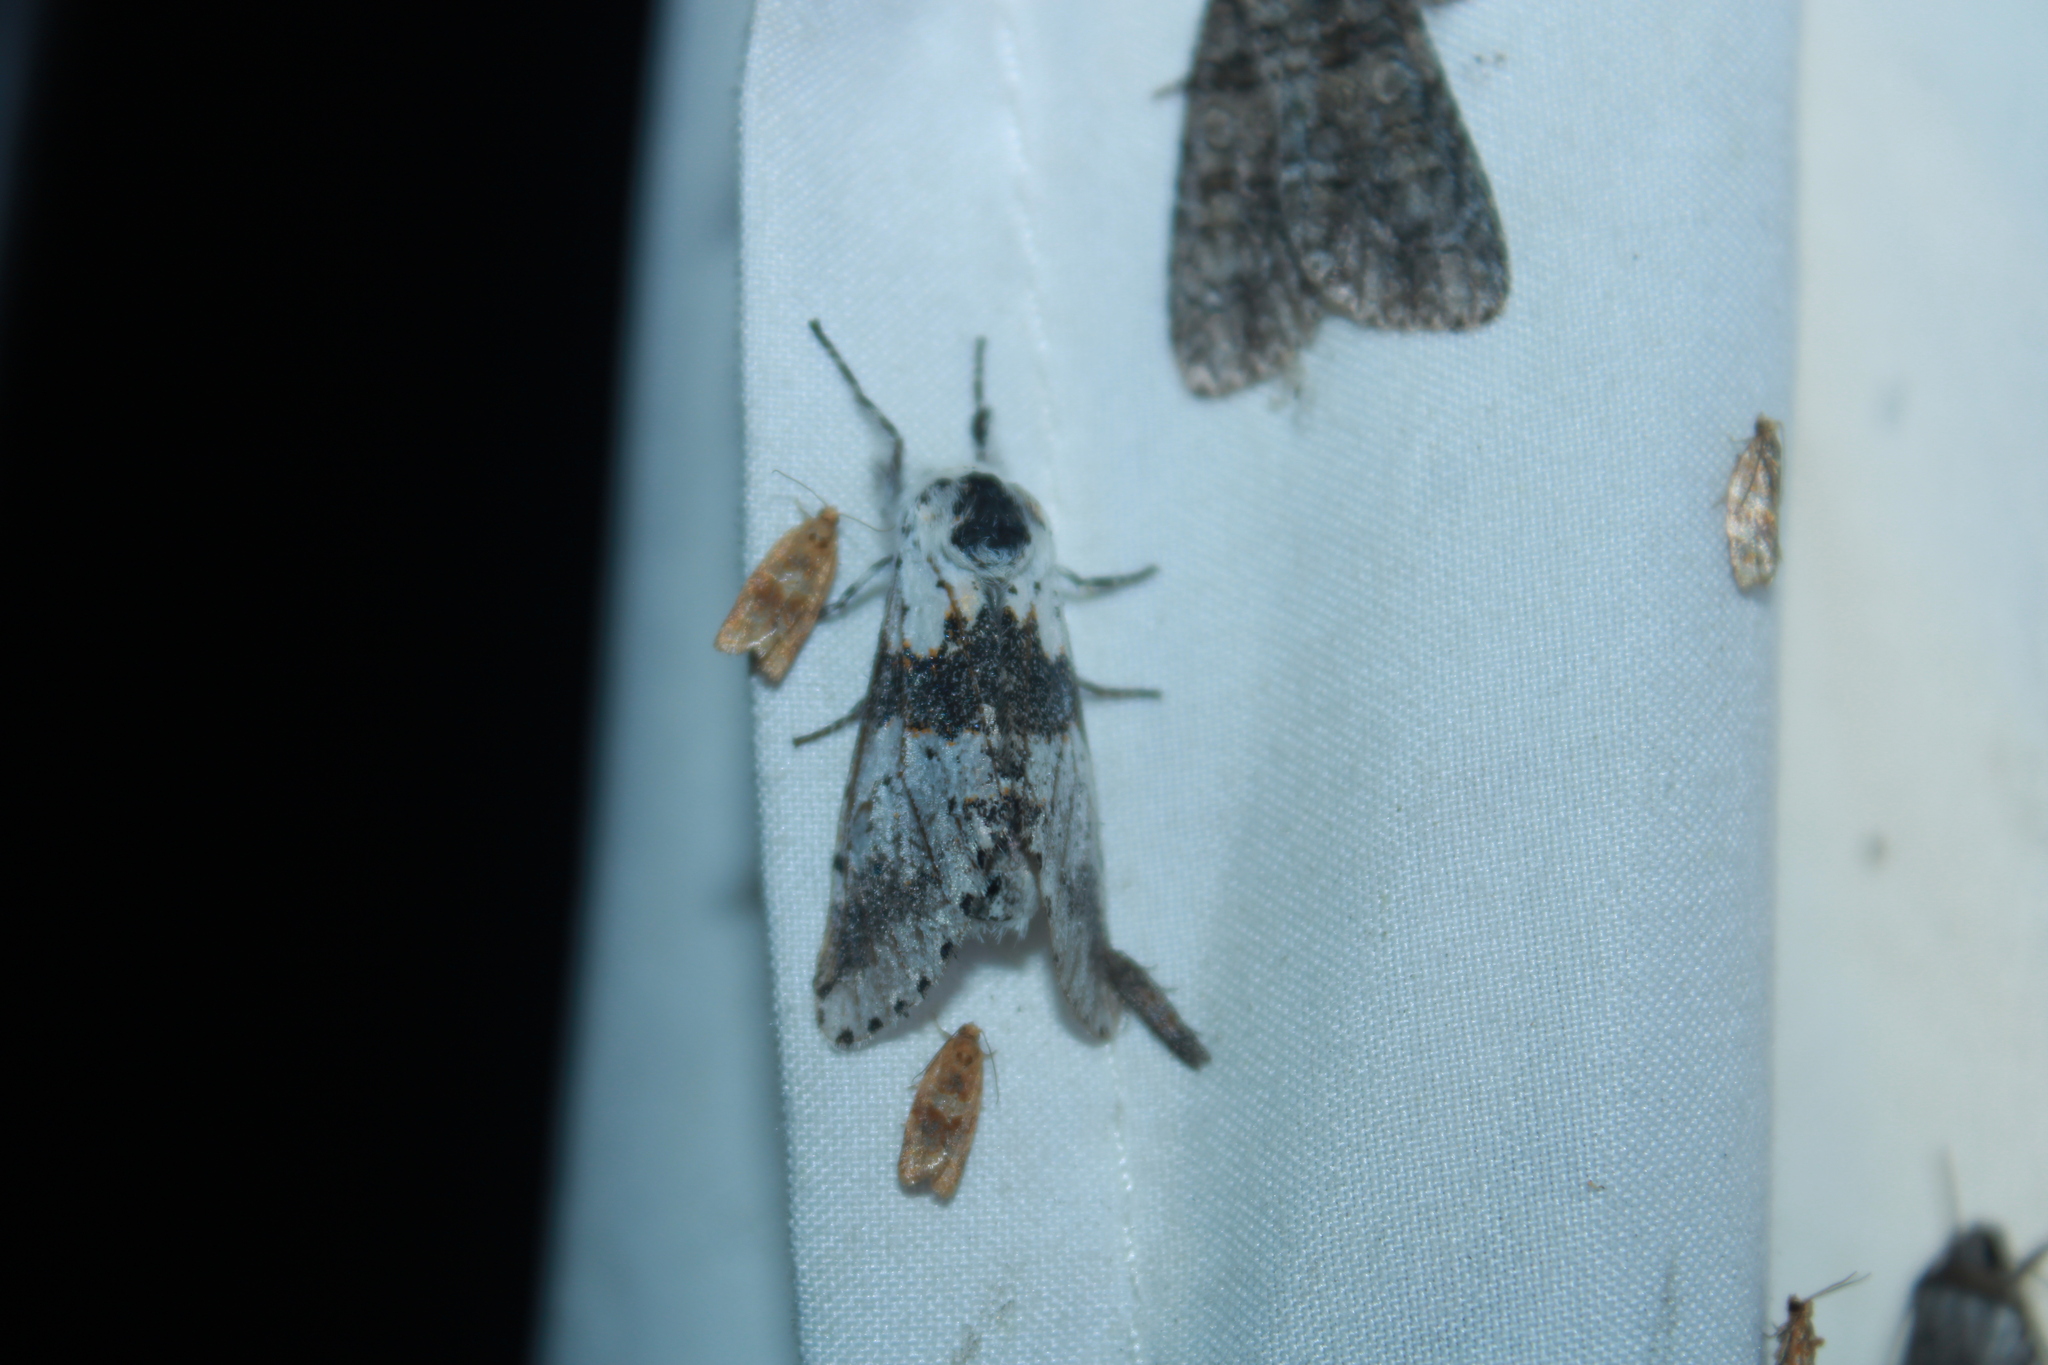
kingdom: Animalia
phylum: Arthropoda
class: Insecta
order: Lepidoptera
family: Notodontidae
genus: Furcula
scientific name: Furcula borealis
